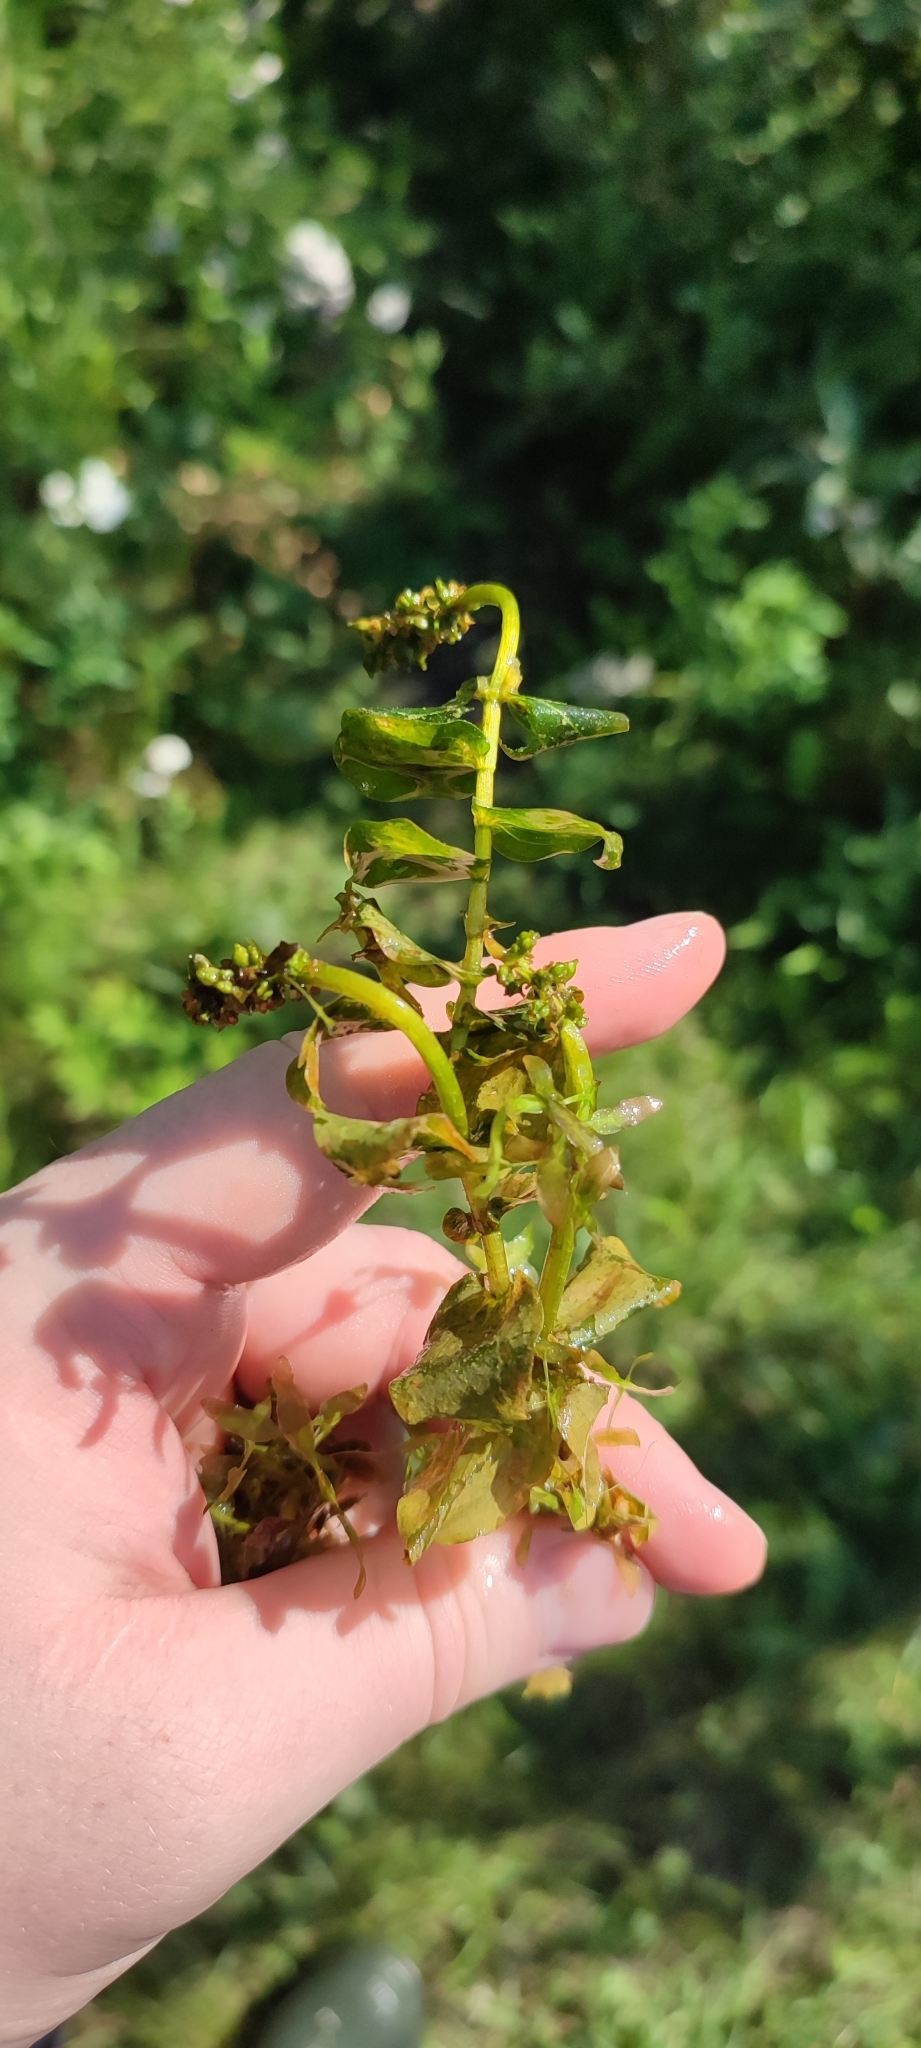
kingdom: Plantae
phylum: Tracheophyta
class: Liliopsida
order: Alismatales
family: Potamogetonaceae
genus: Potamogeton
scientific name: Potamogeton perfoliatus
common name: Perfoliate pondweed
